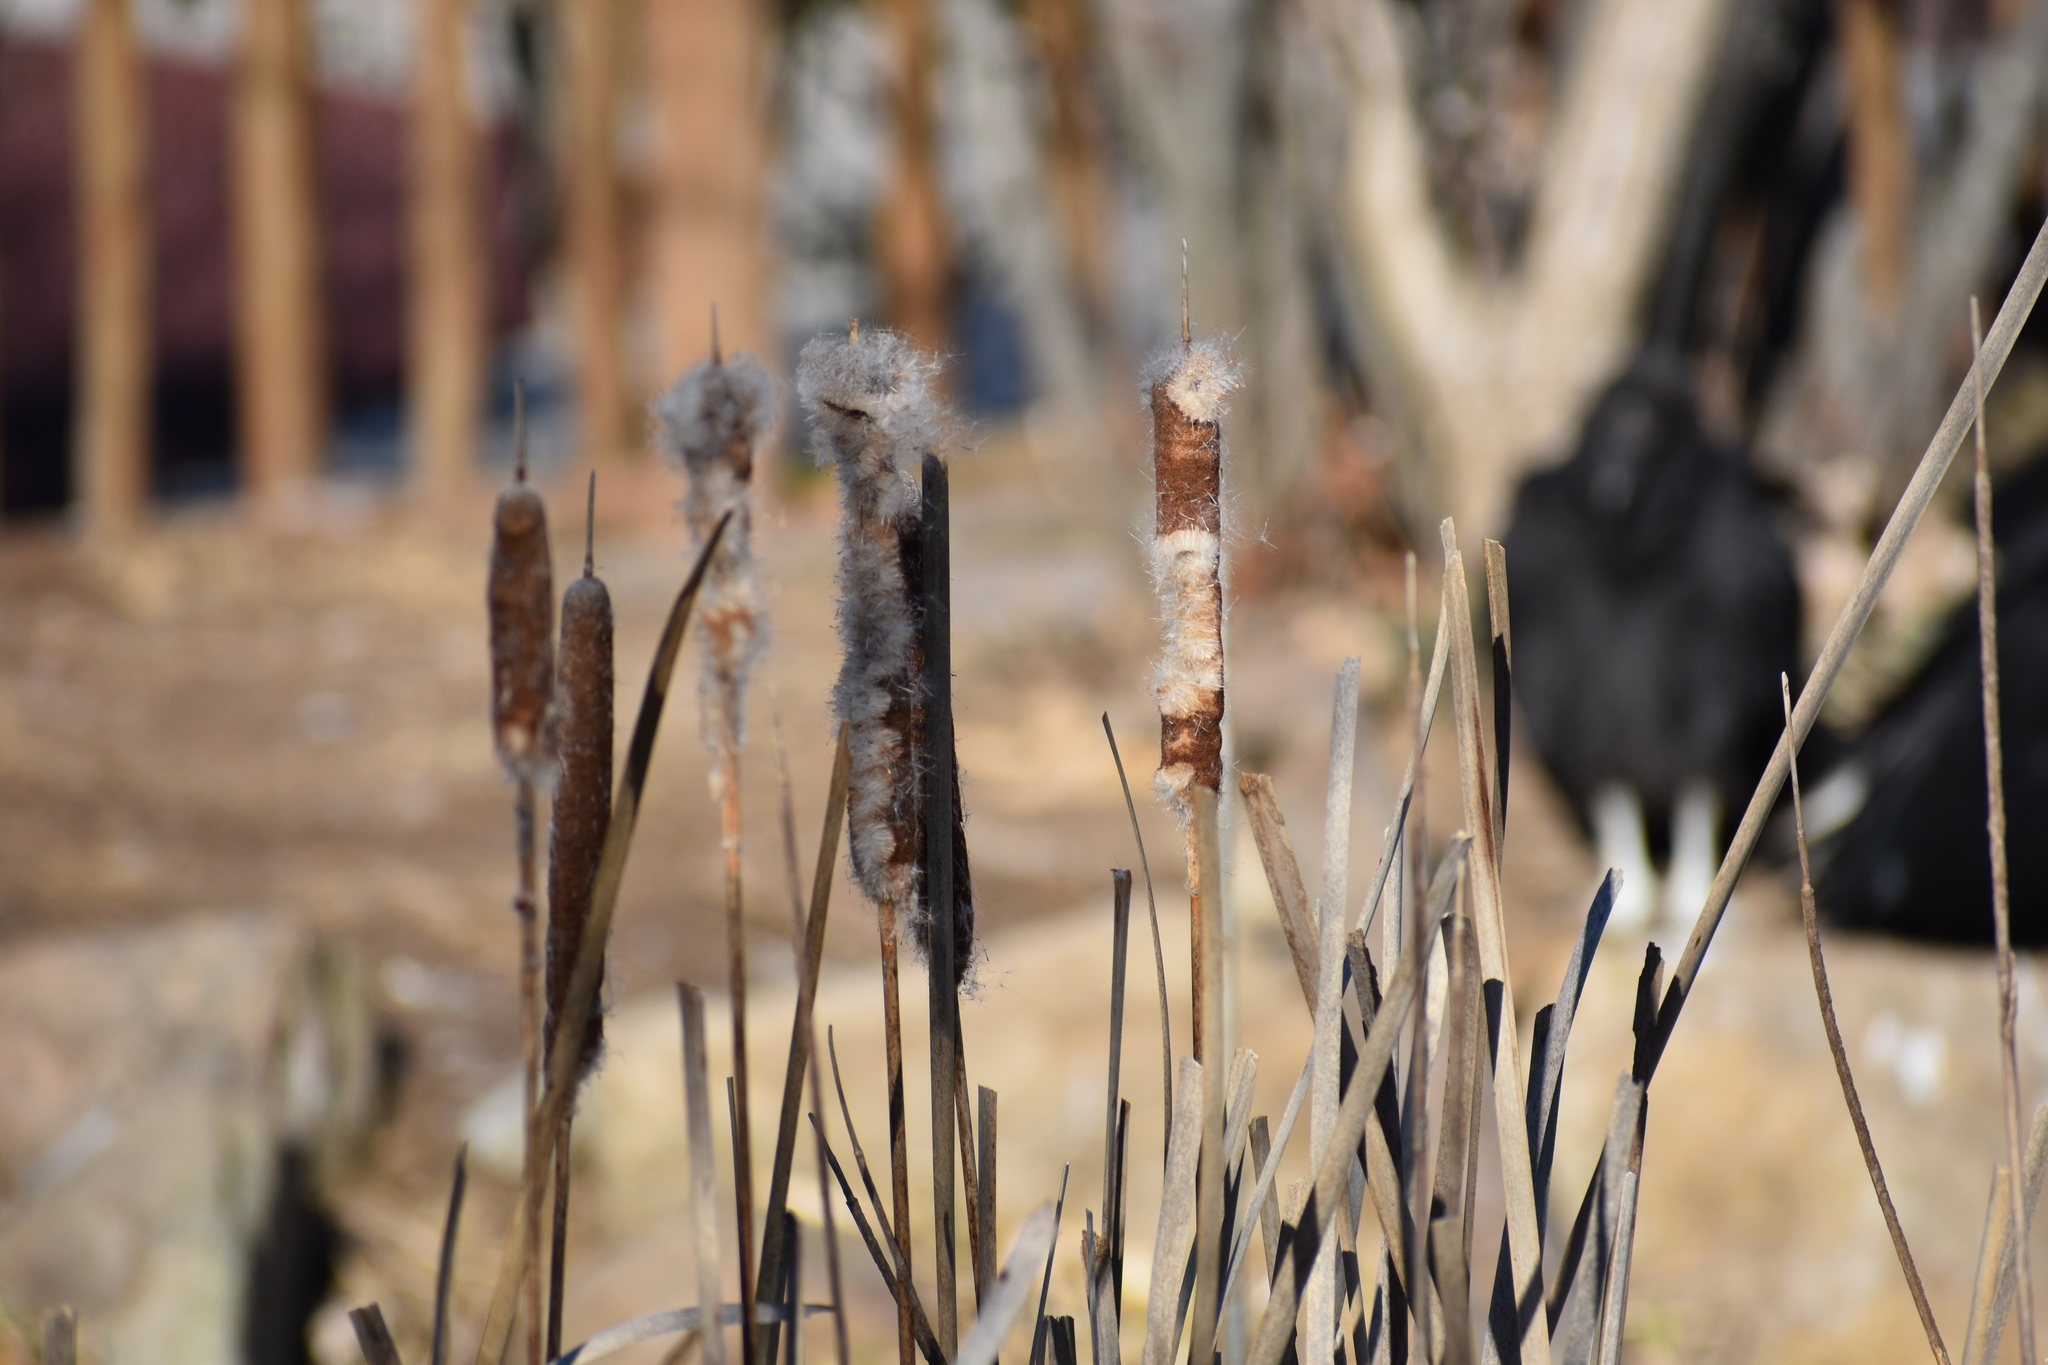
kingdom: Plantae
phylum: Tracheophyta
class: Liliopsida
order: Poales
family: Typhaceae
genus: Typha
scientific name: Typha
